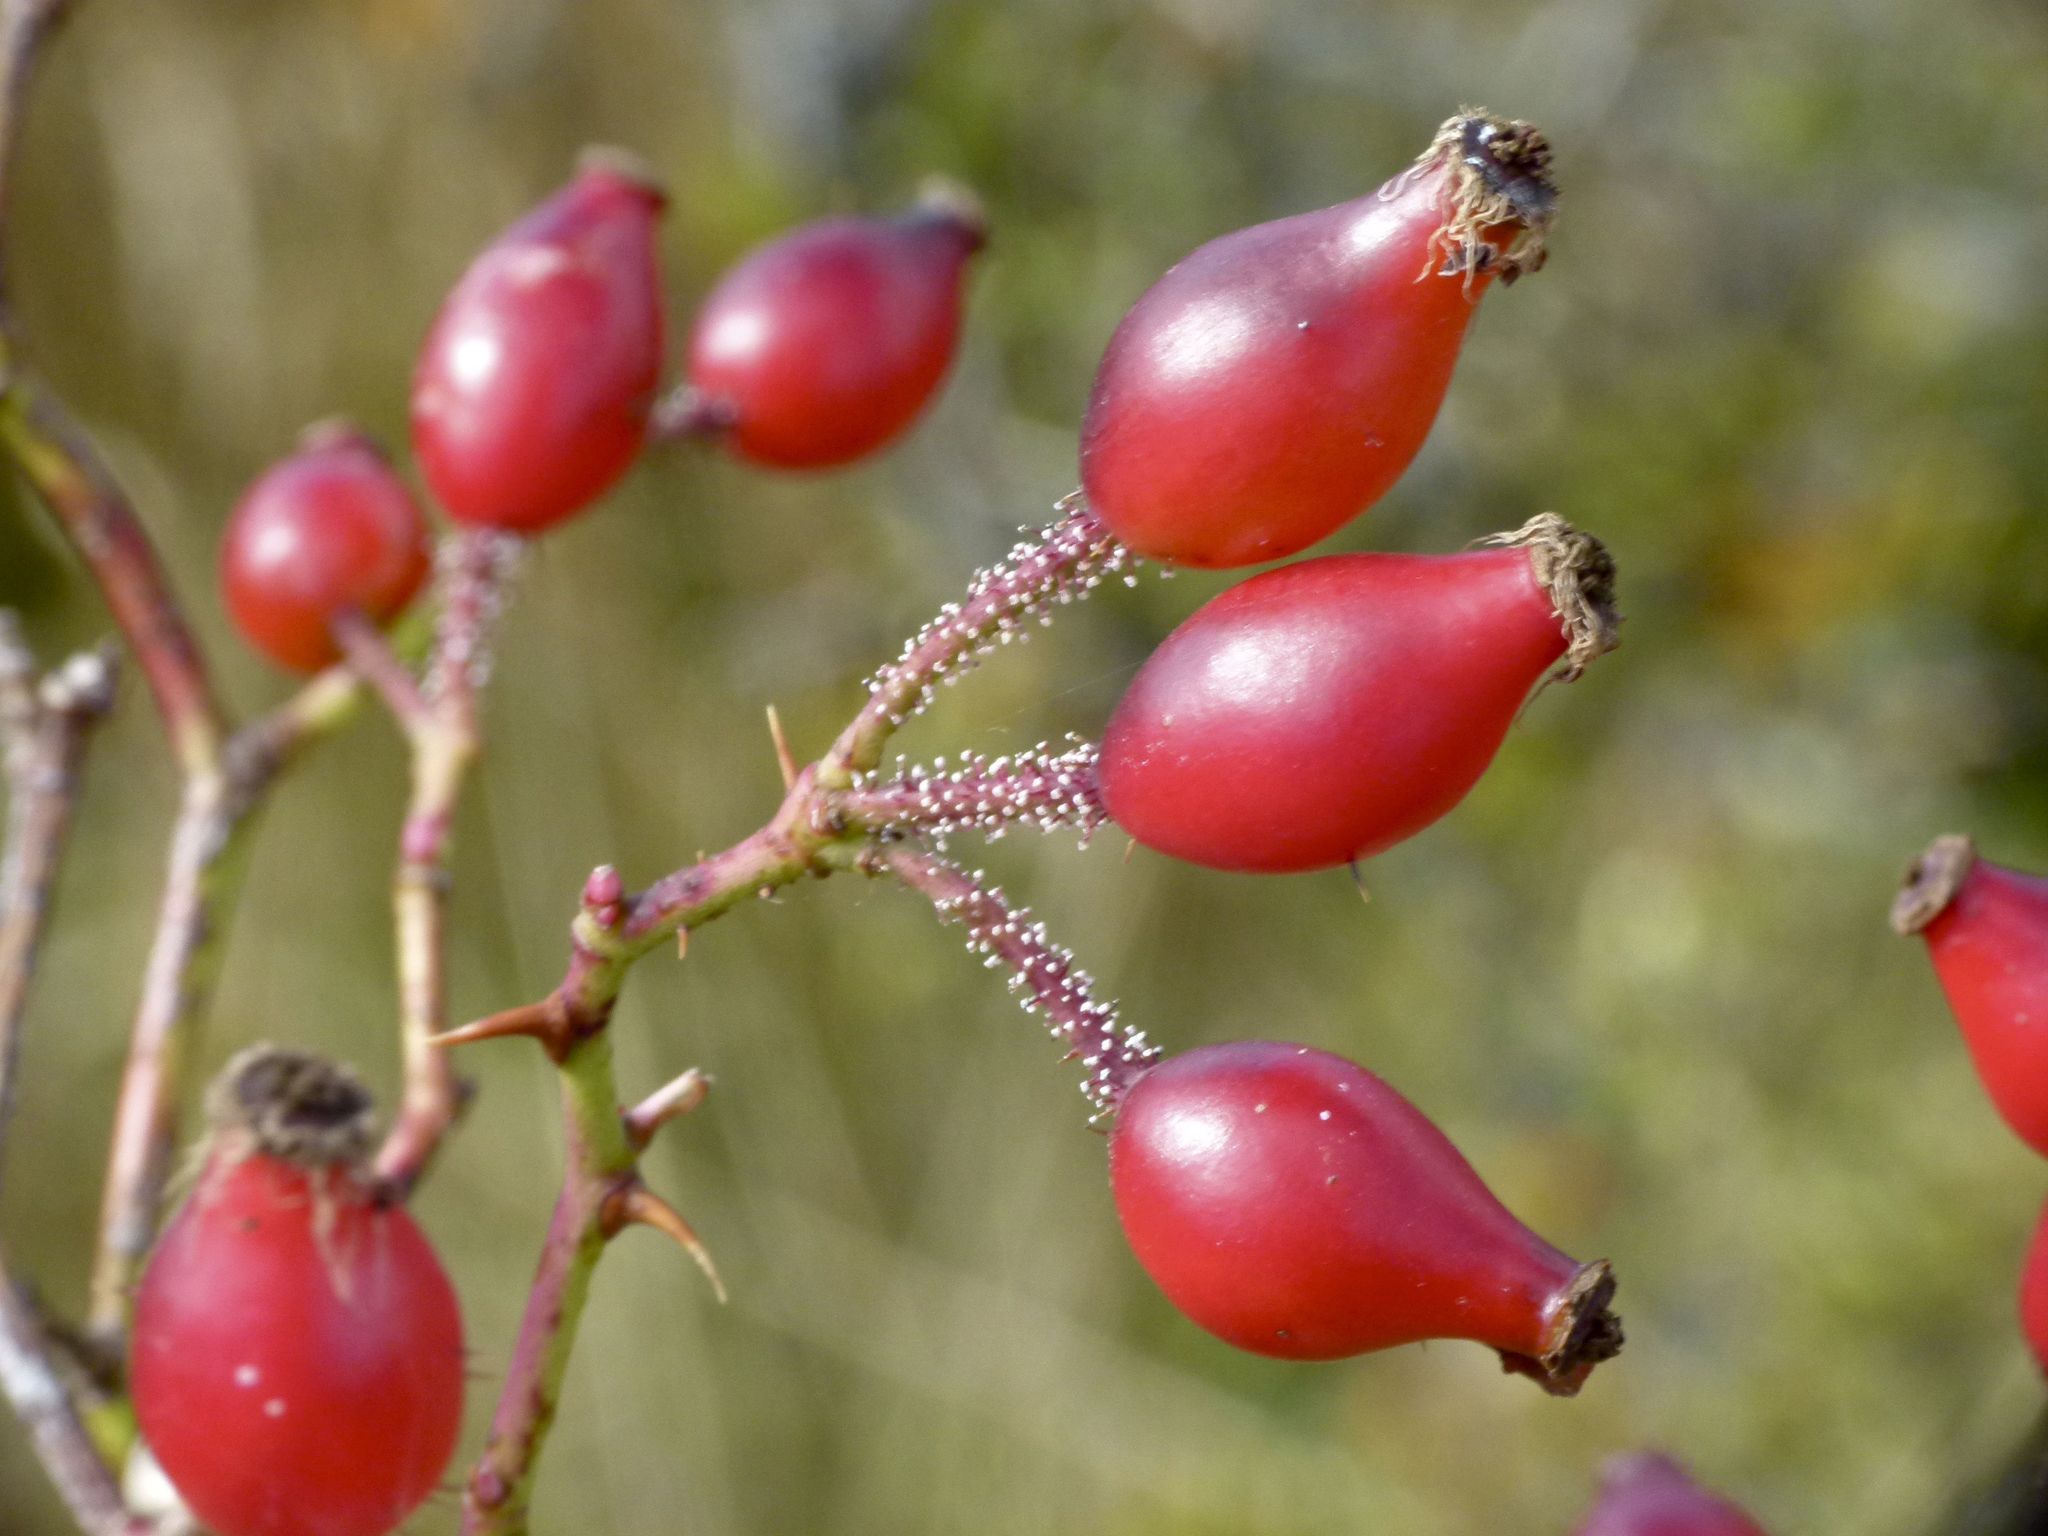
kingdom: Plantae
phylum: Tracheophyta
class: Magnoliopsida
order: Rosales
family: Rosaceae
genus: Rosa
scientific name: Rosa rubiginosa
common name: Sweet-briar
